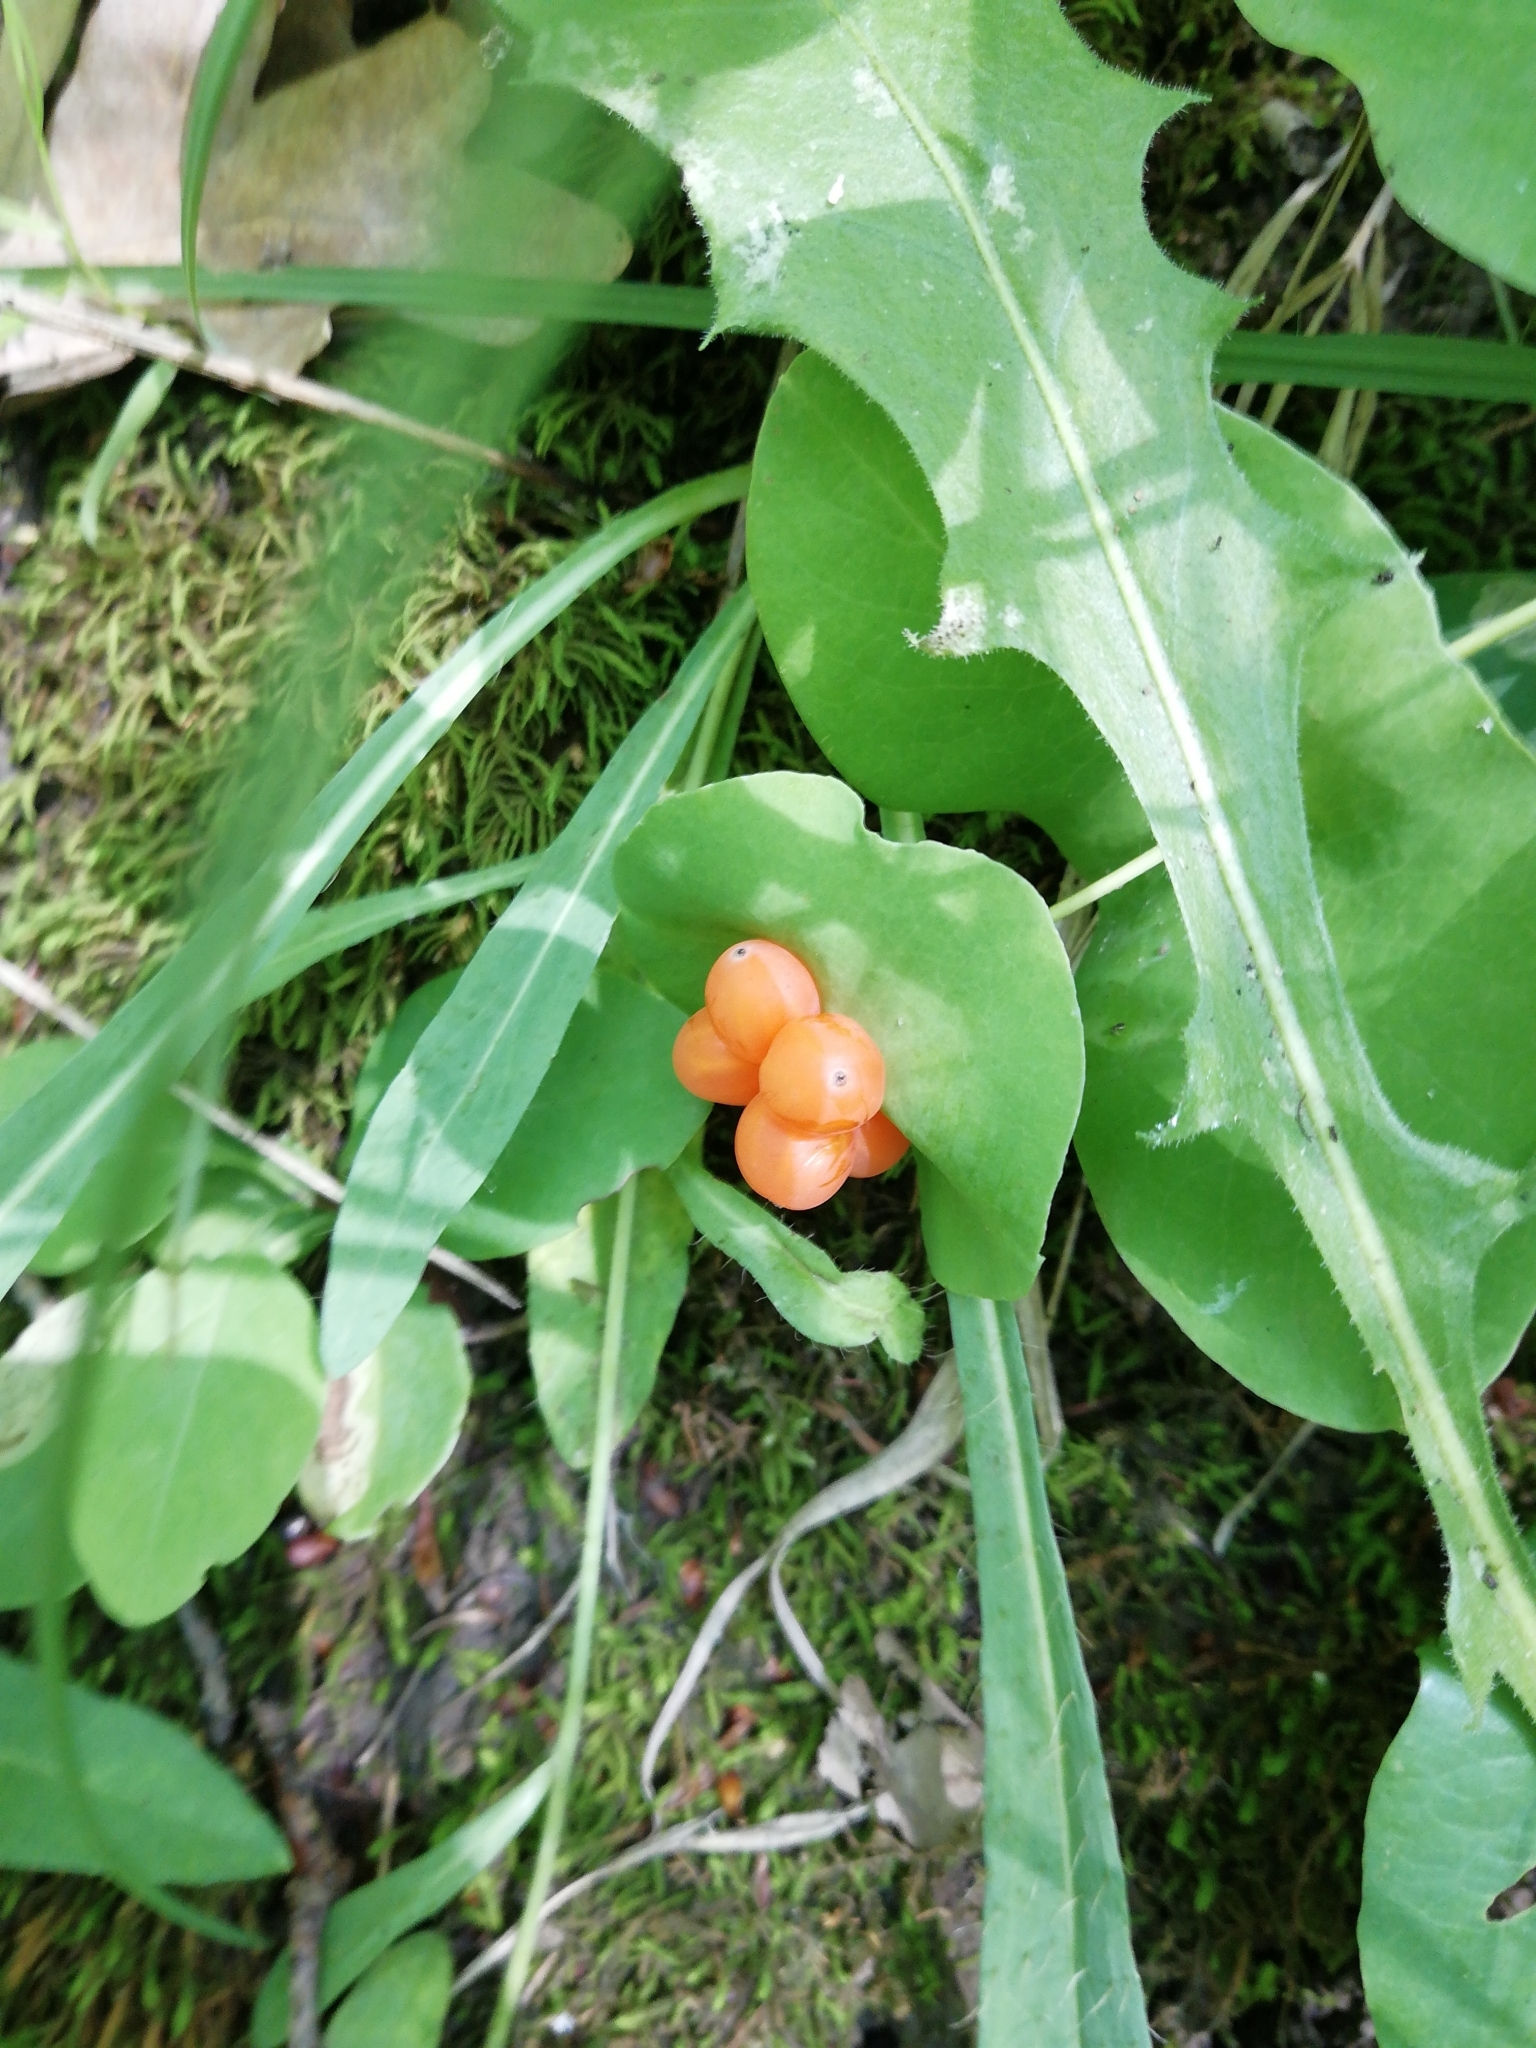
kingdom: Plantae
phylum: Tracheophyta
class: Magnoliopsida
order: Dipsacales
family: Caprifoliaceae
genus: Lonicera
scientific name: Lonicera caprifolium
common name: Perfoliate honeysuckle
